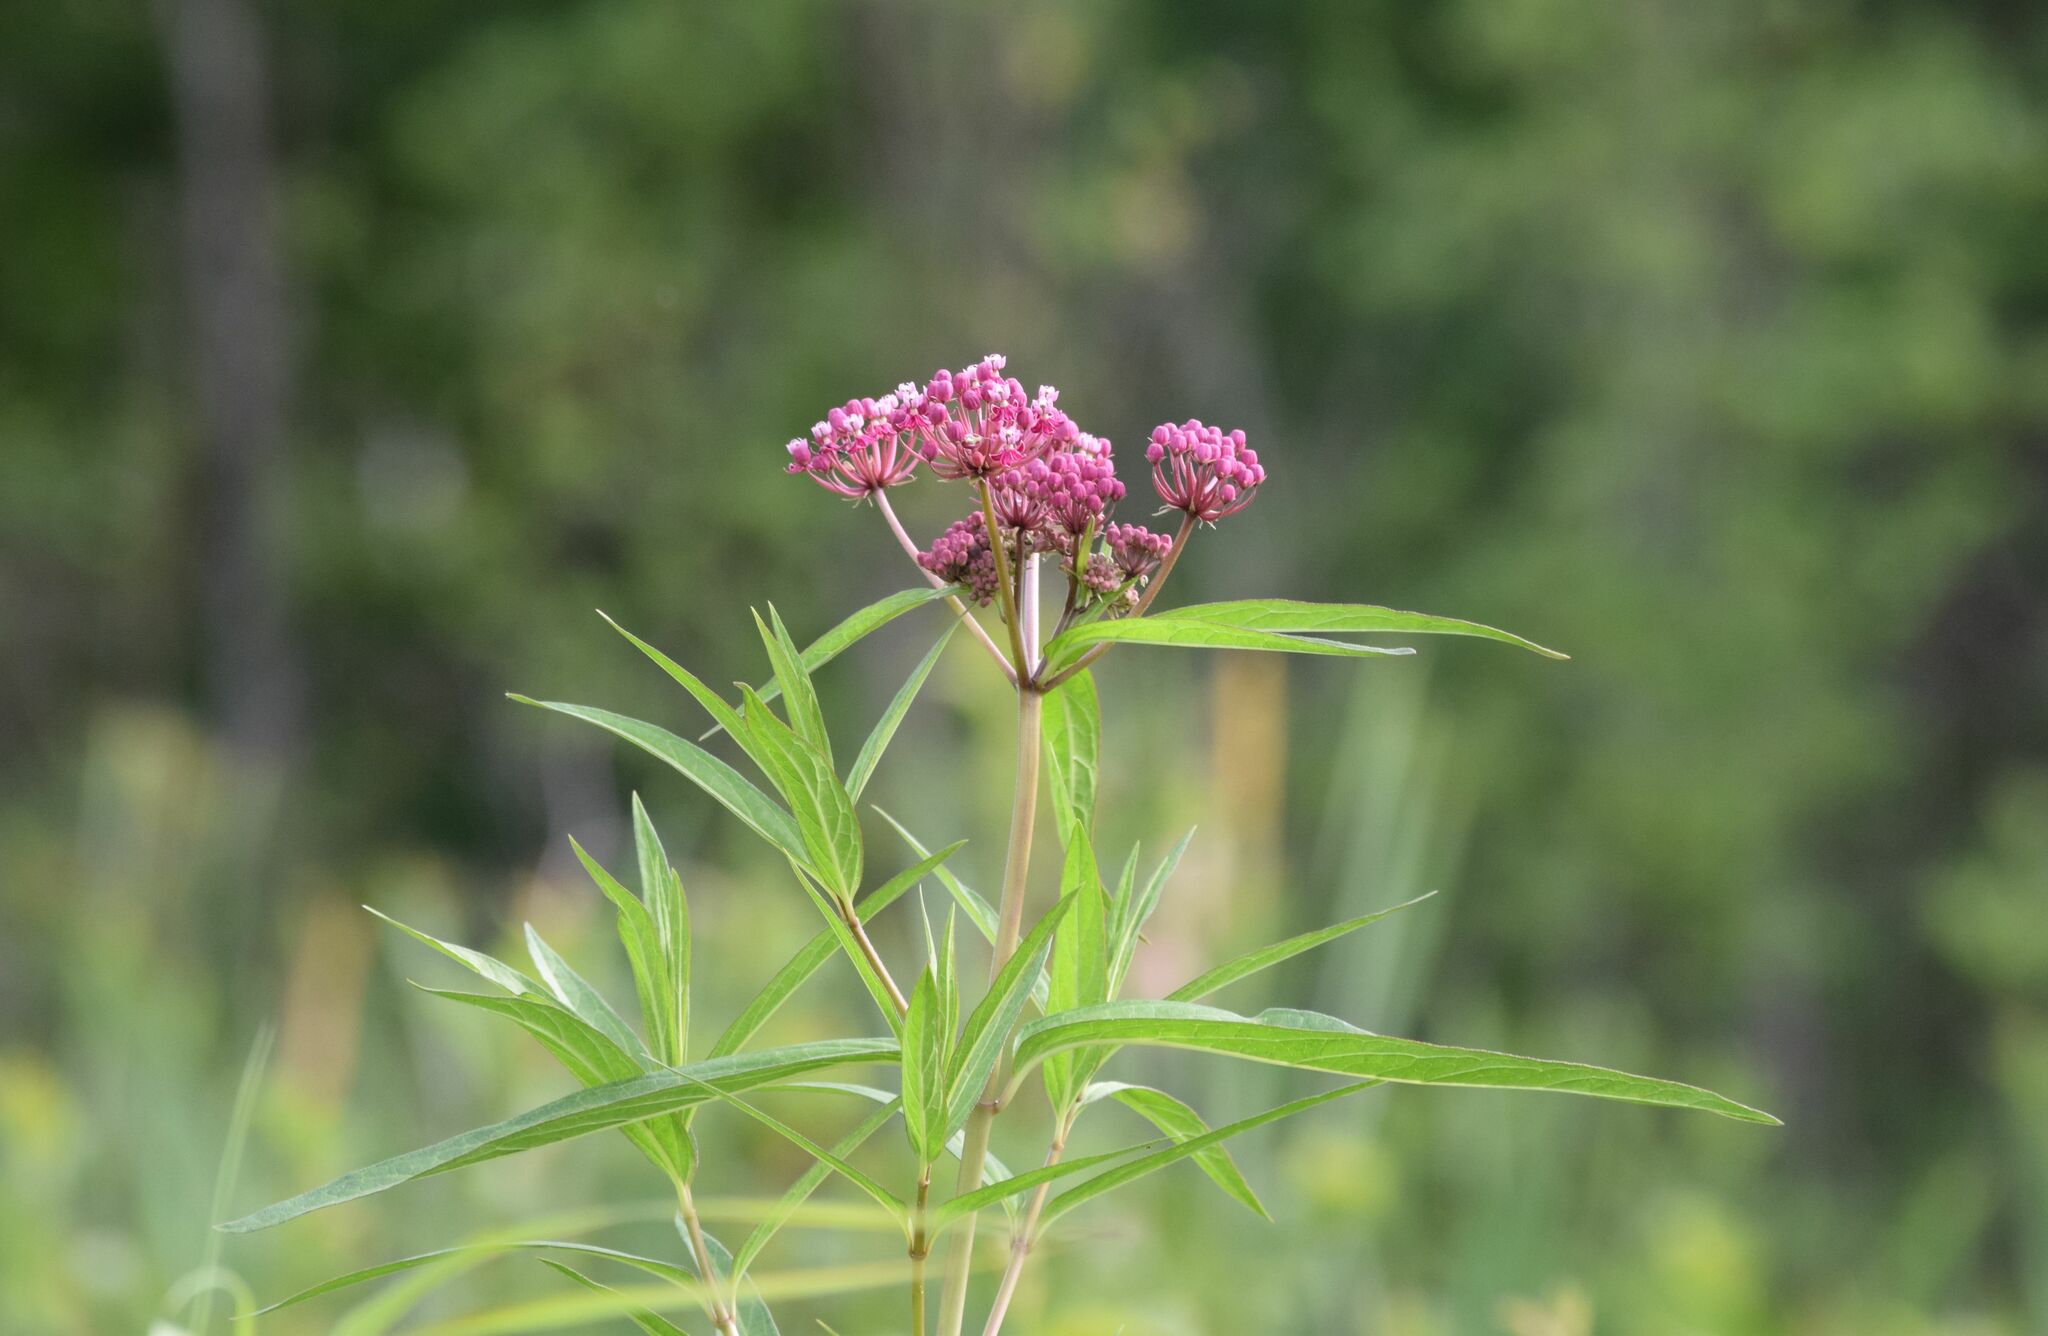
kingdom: Plantae
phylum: Tracheophyta
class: Magnoliopsida
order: Gentianales
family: Apocynaceae
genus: Asclepias
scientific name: Asclepias incarnata
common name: Swamp milkweed
